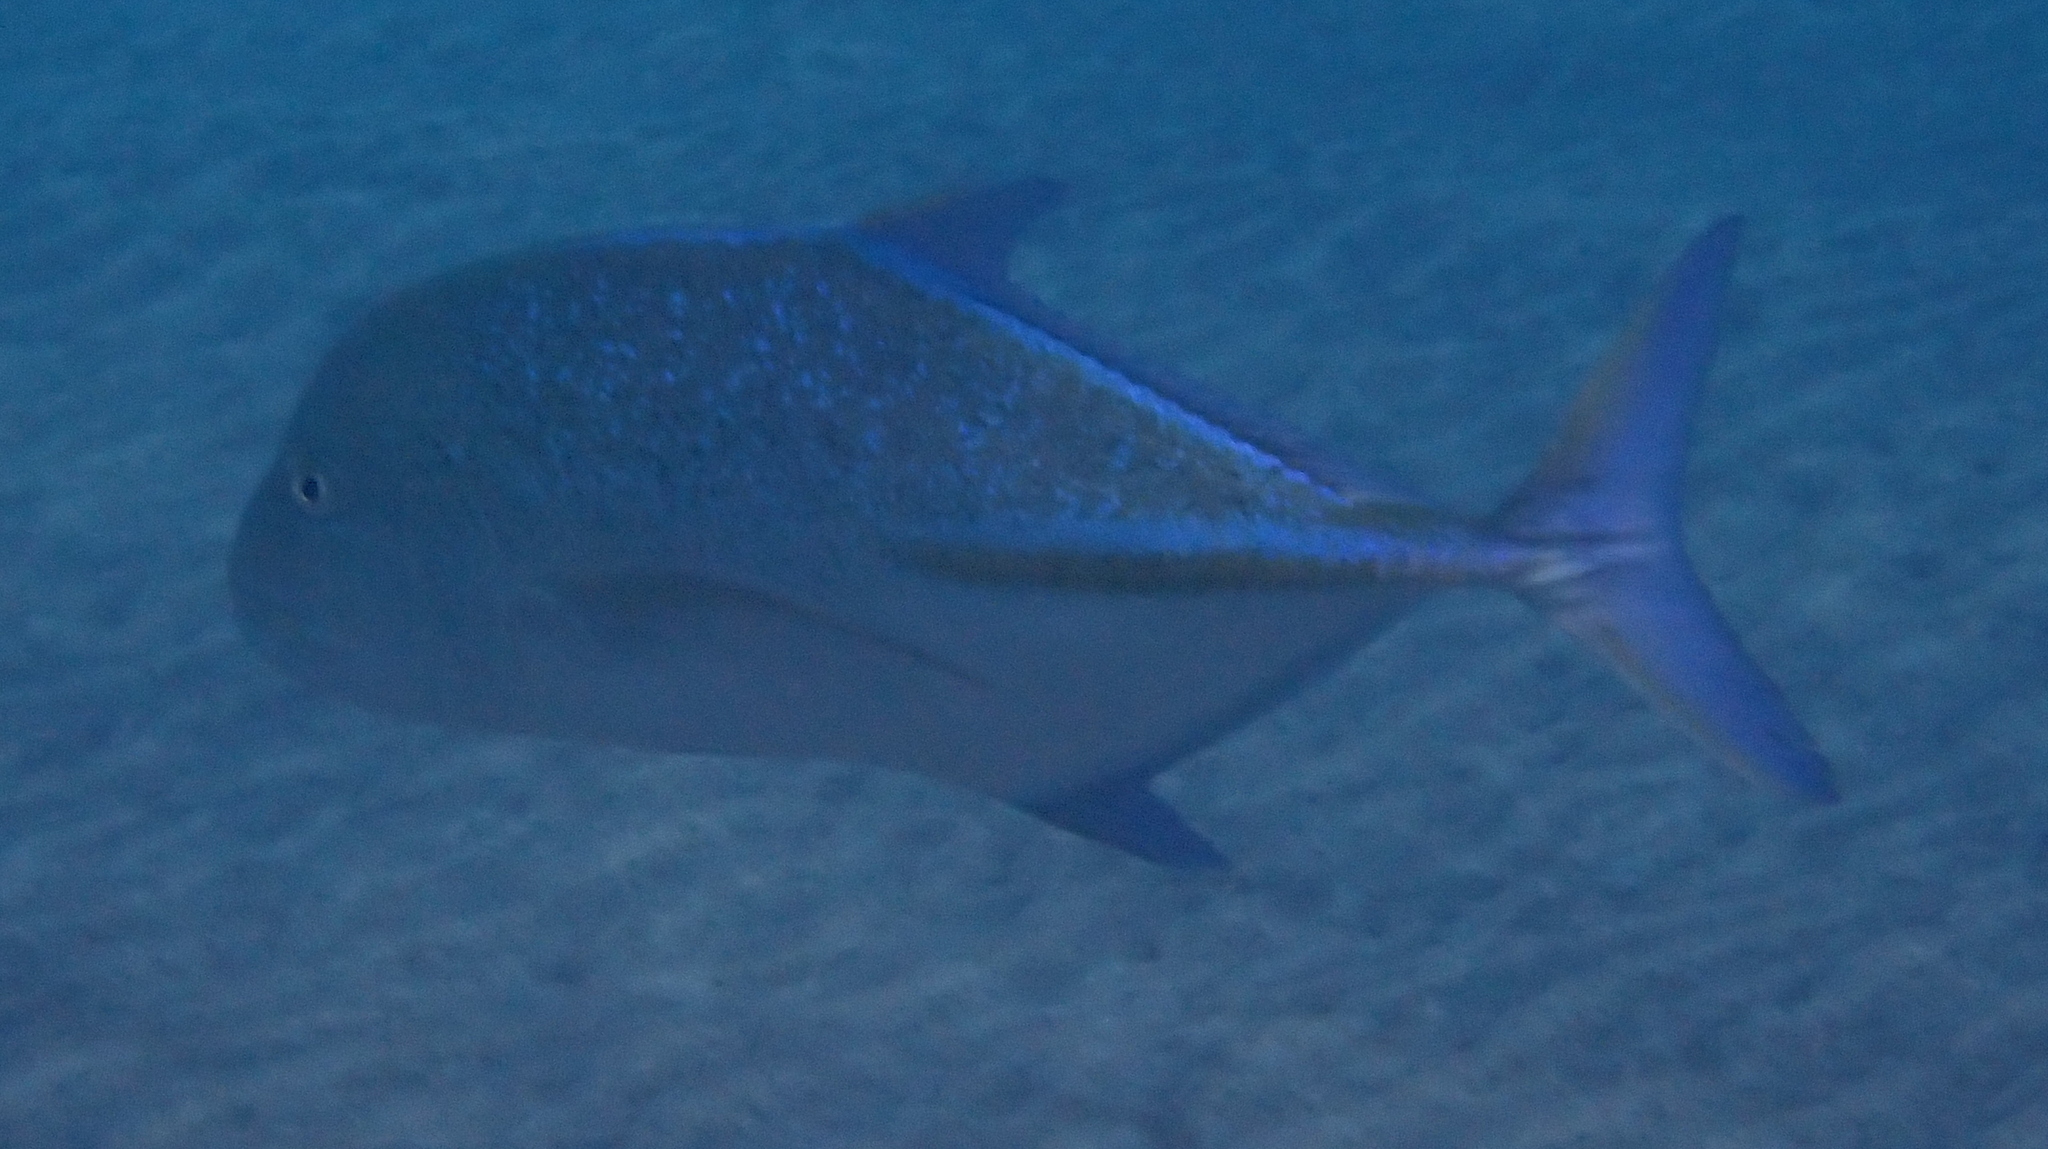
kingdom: Animalia
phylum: Chordata
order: Perciformes
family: Carangidae
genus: Caranx
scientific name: Caranx melampygus
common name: Bluefin trevally
